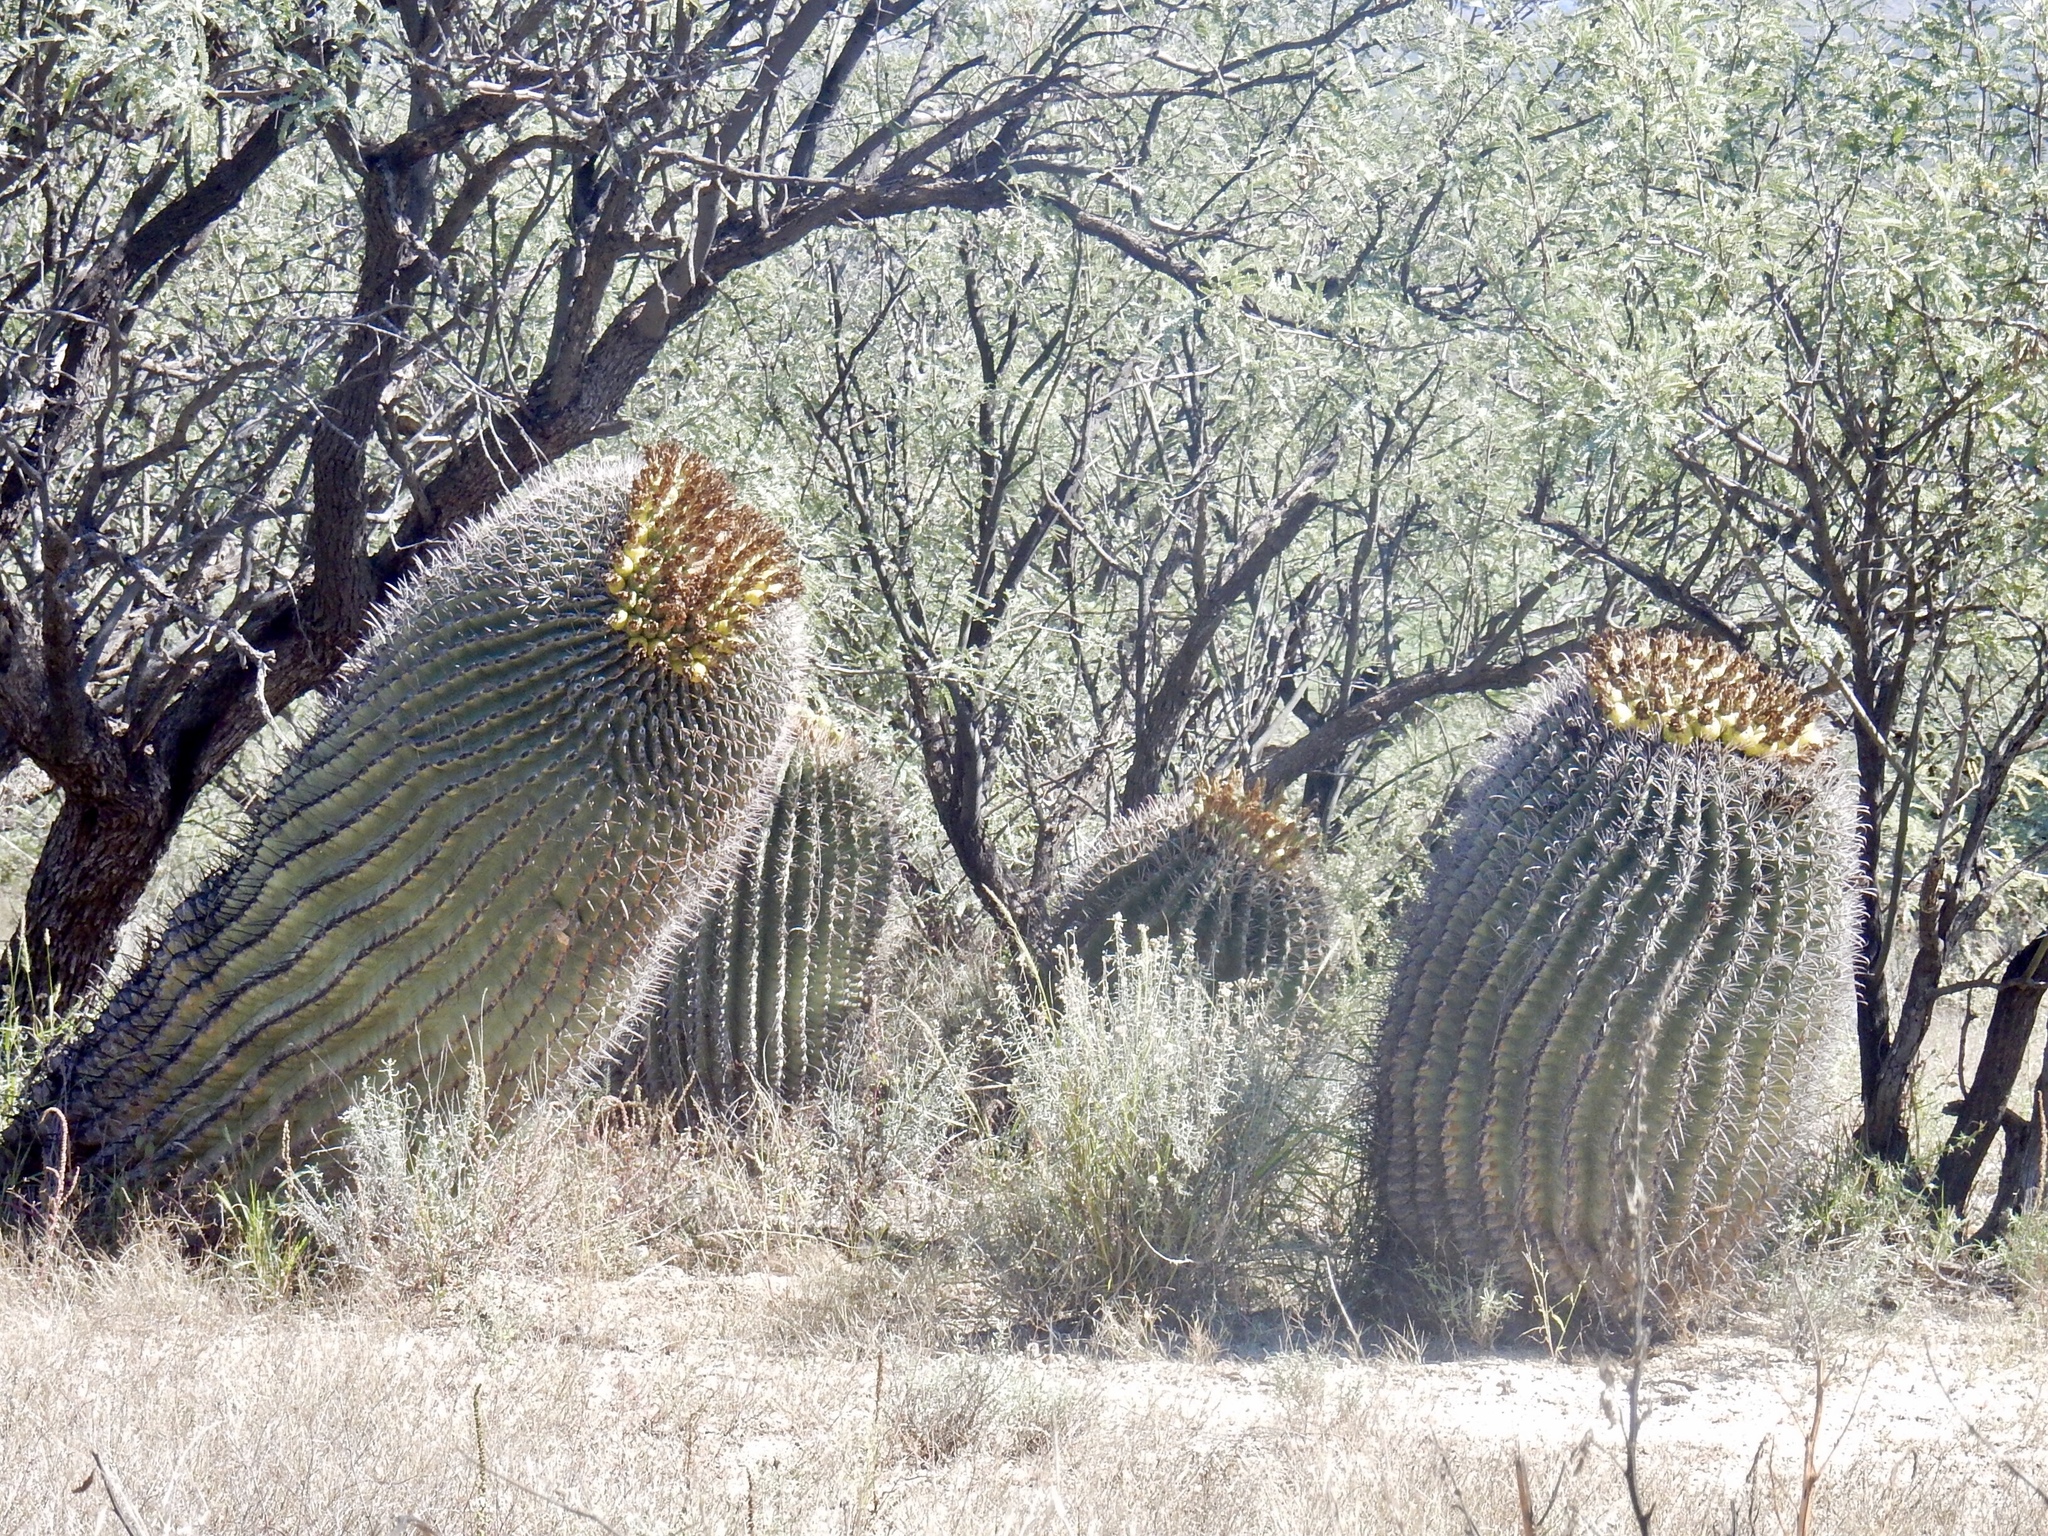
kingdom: Plantae
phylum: Tracheophyta
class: Magnoliopsida
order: Caryophyllales
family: Cactaceae
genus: Ferocactus
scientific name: Ferocactus wislizeni
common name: Candy barrel cactus
